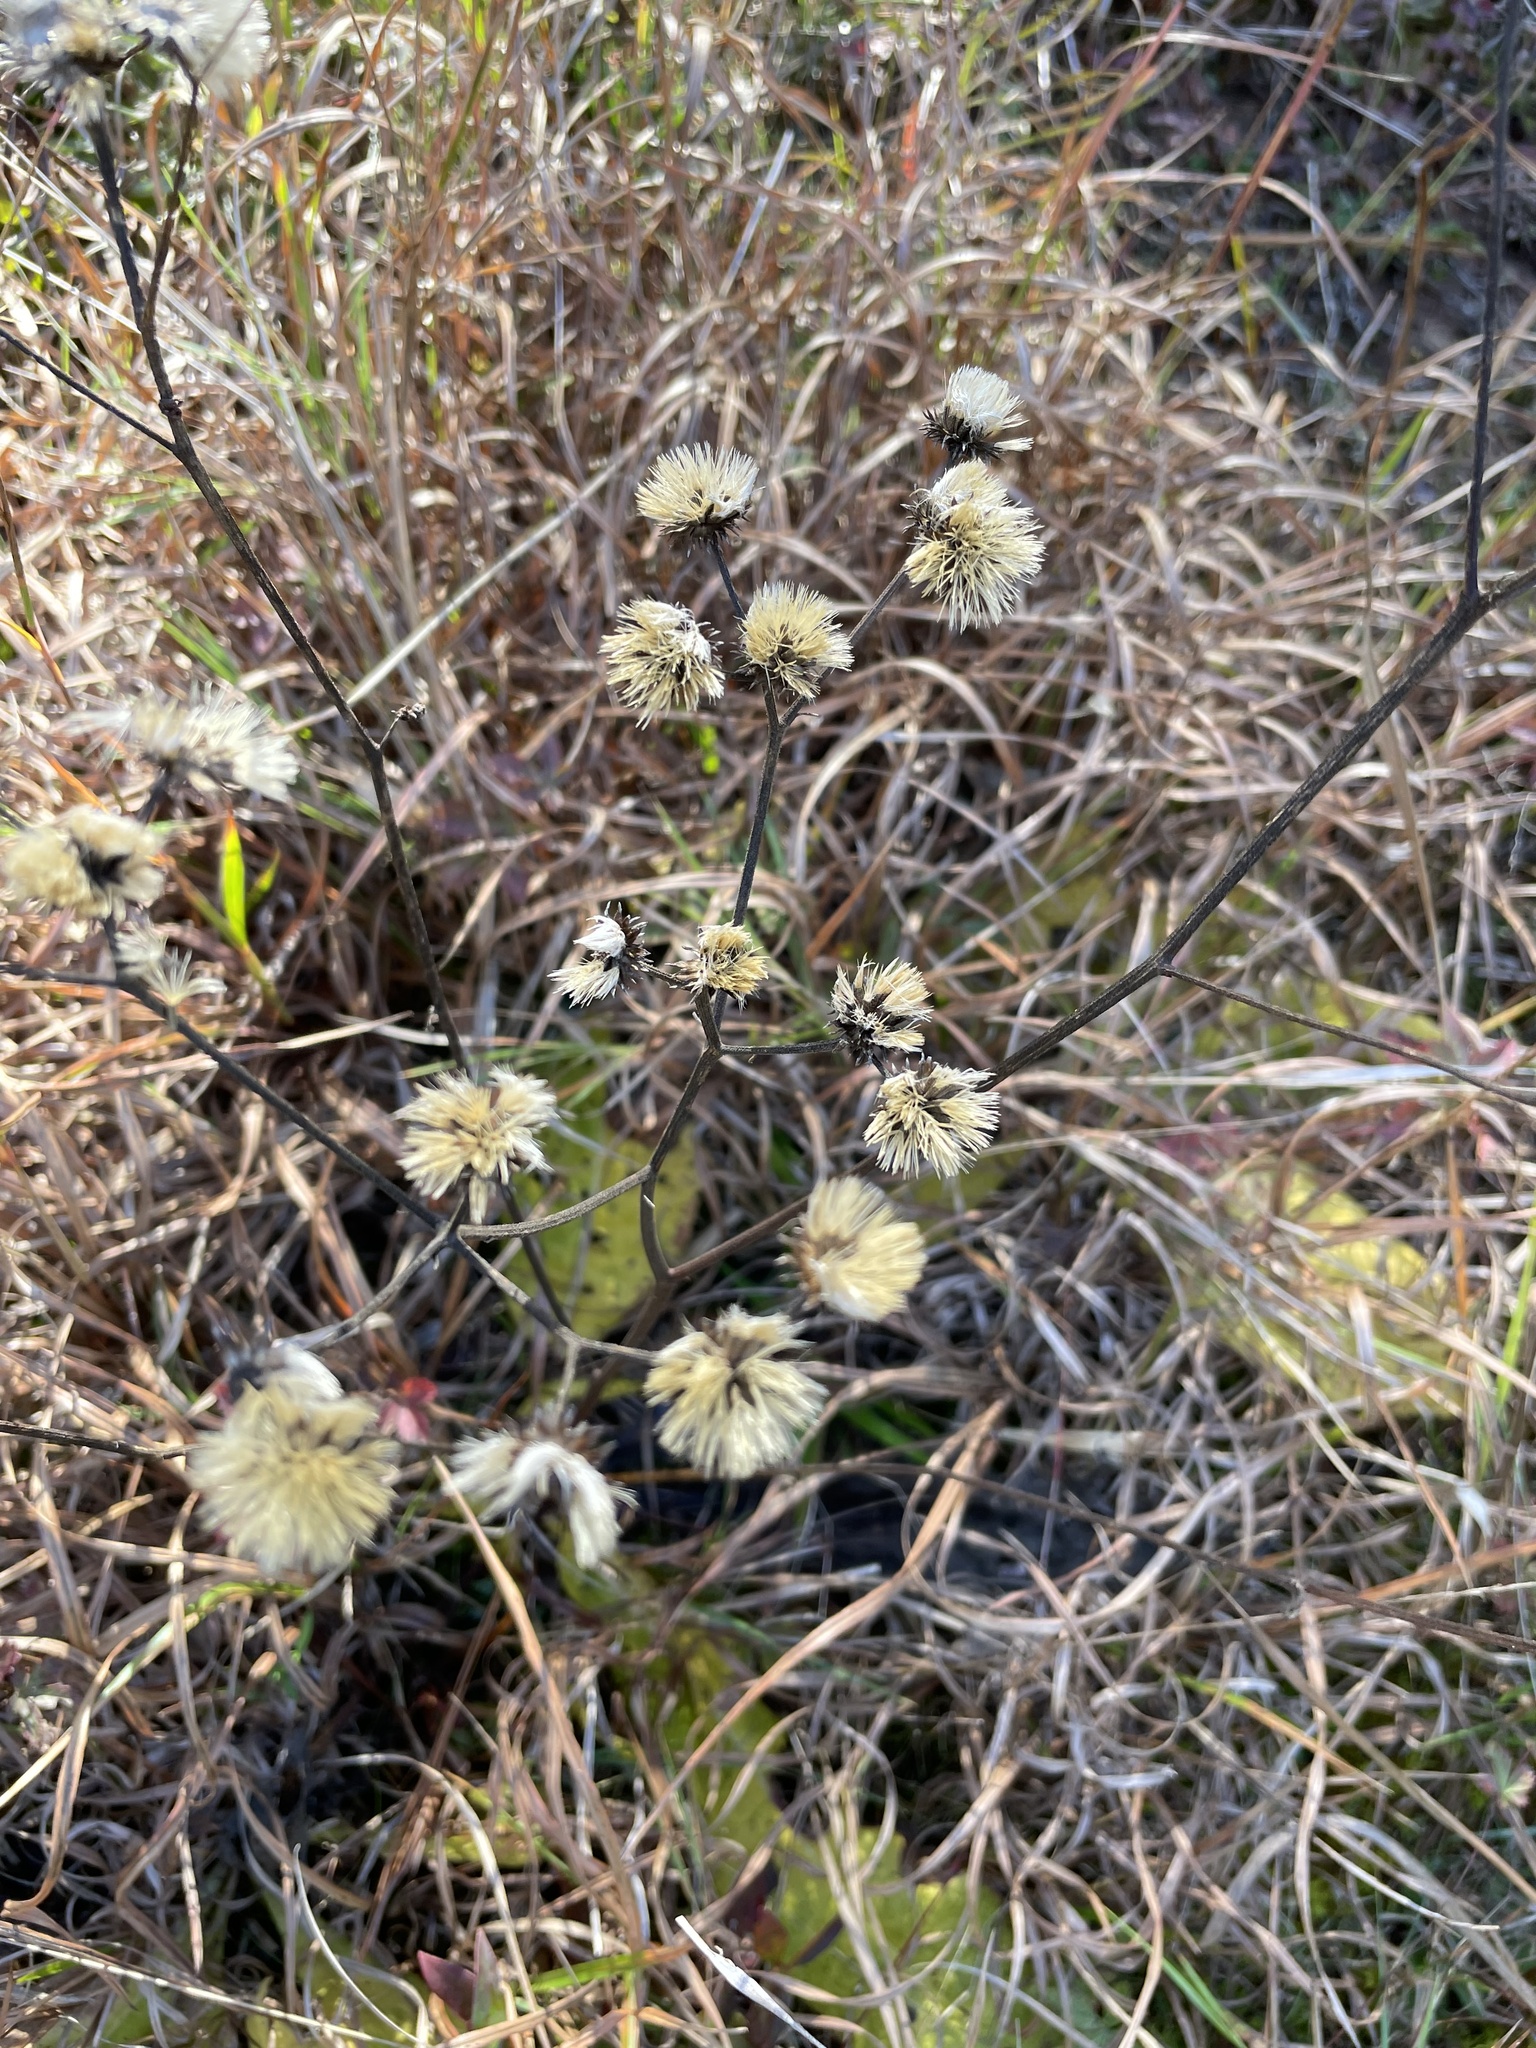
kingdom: Plantae
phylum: Tracheophyta
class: Magnoliopsida
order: Asterales
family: Asteraceae
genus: Vernonia
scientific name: Vernonia acaulis
